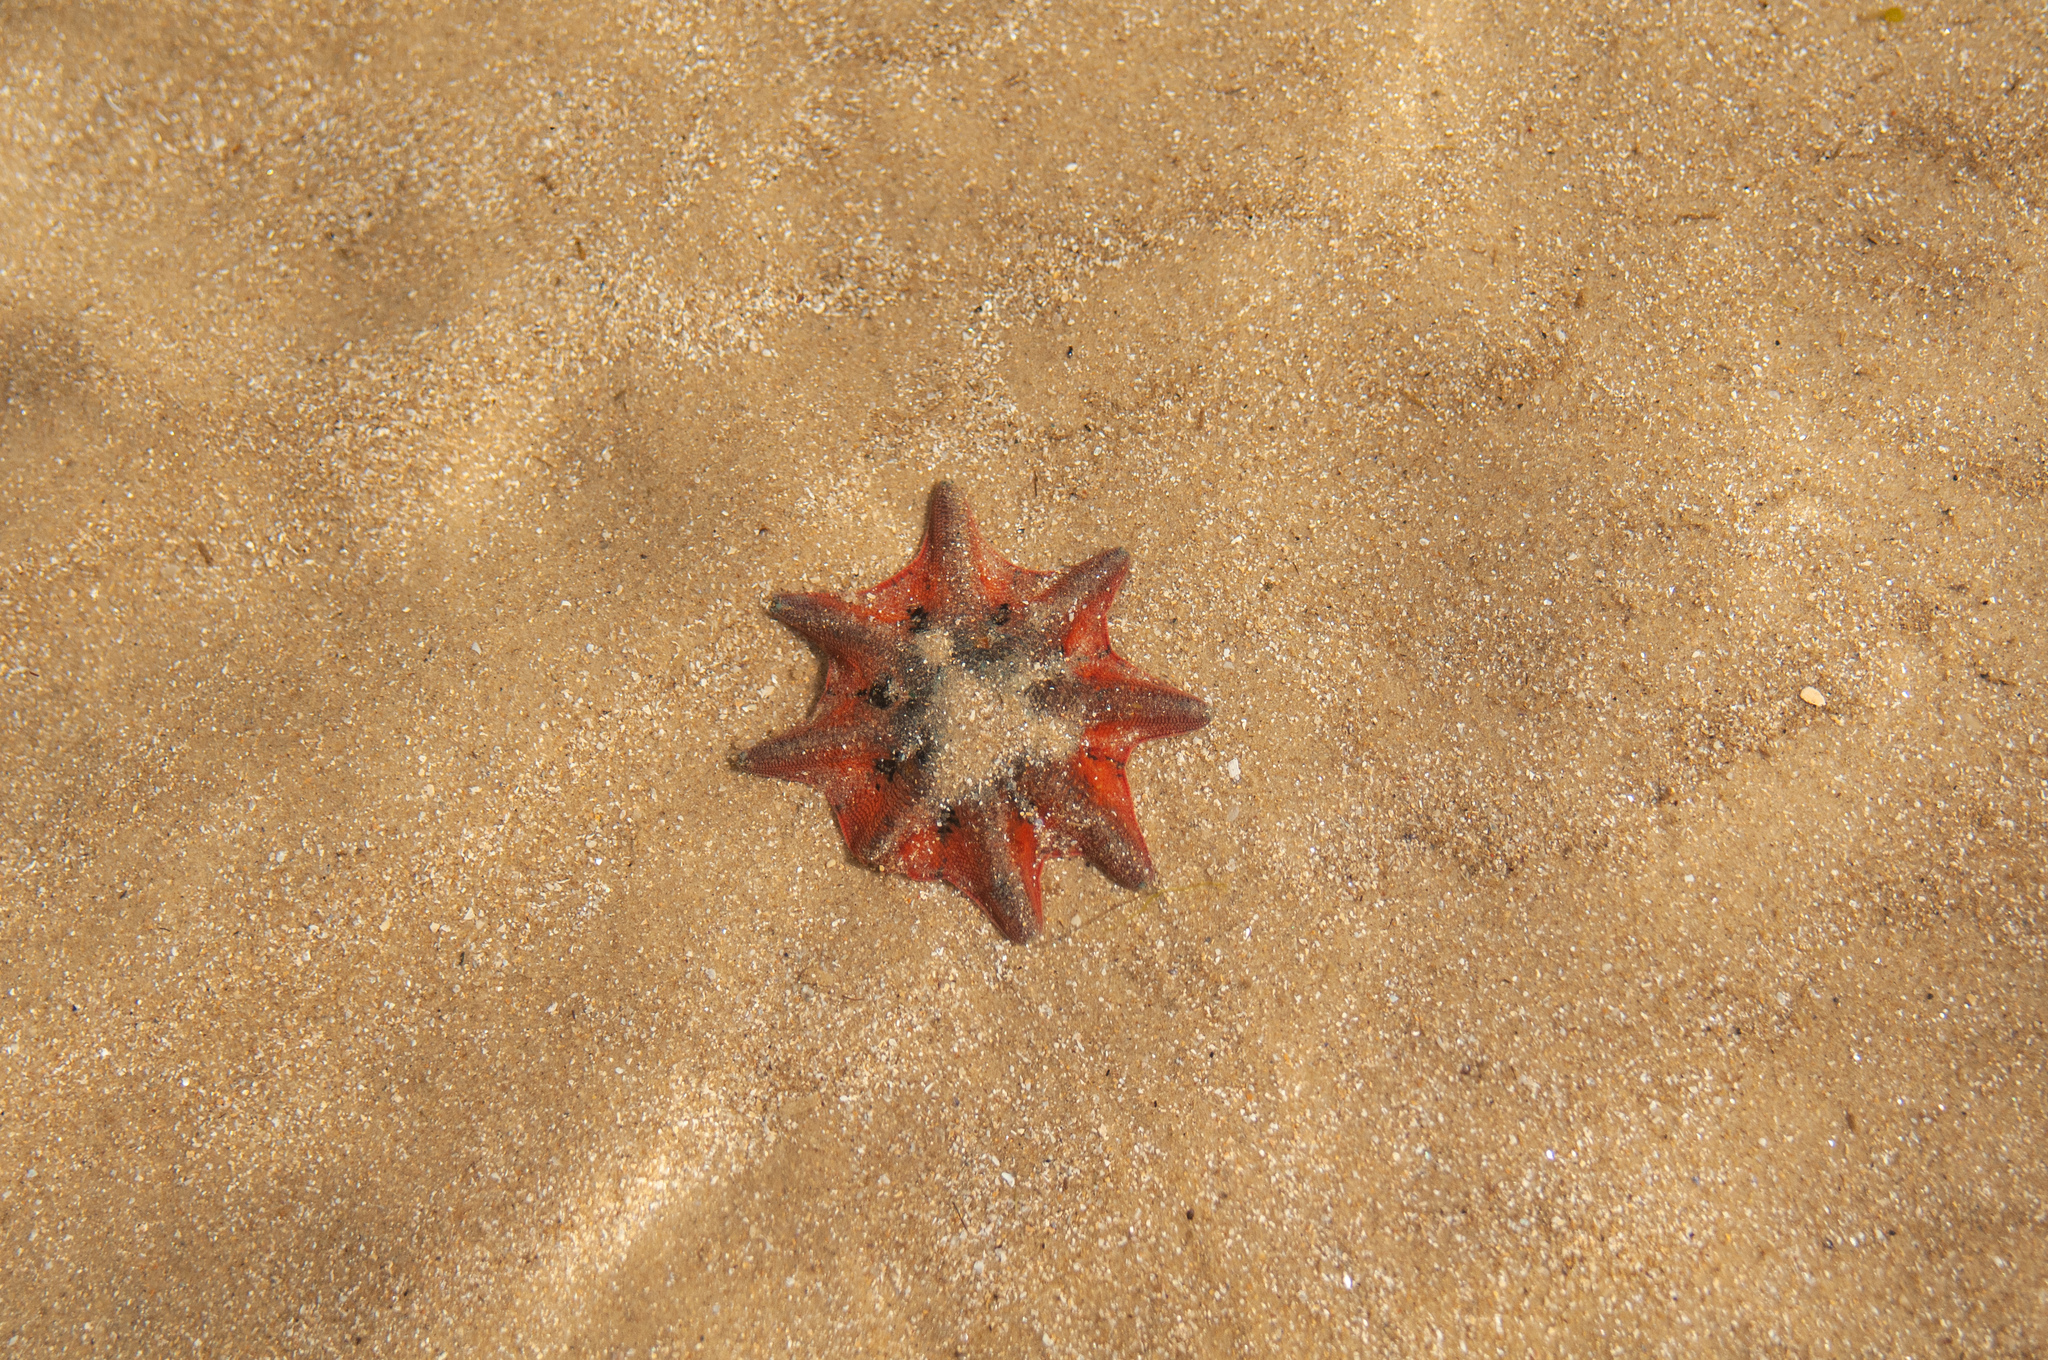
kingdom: Animalia
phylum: Echinodermata
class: Asteroidea
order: Valvatida
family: Asterinidae
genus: Meridiastra
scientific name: Meridiastra calcar
